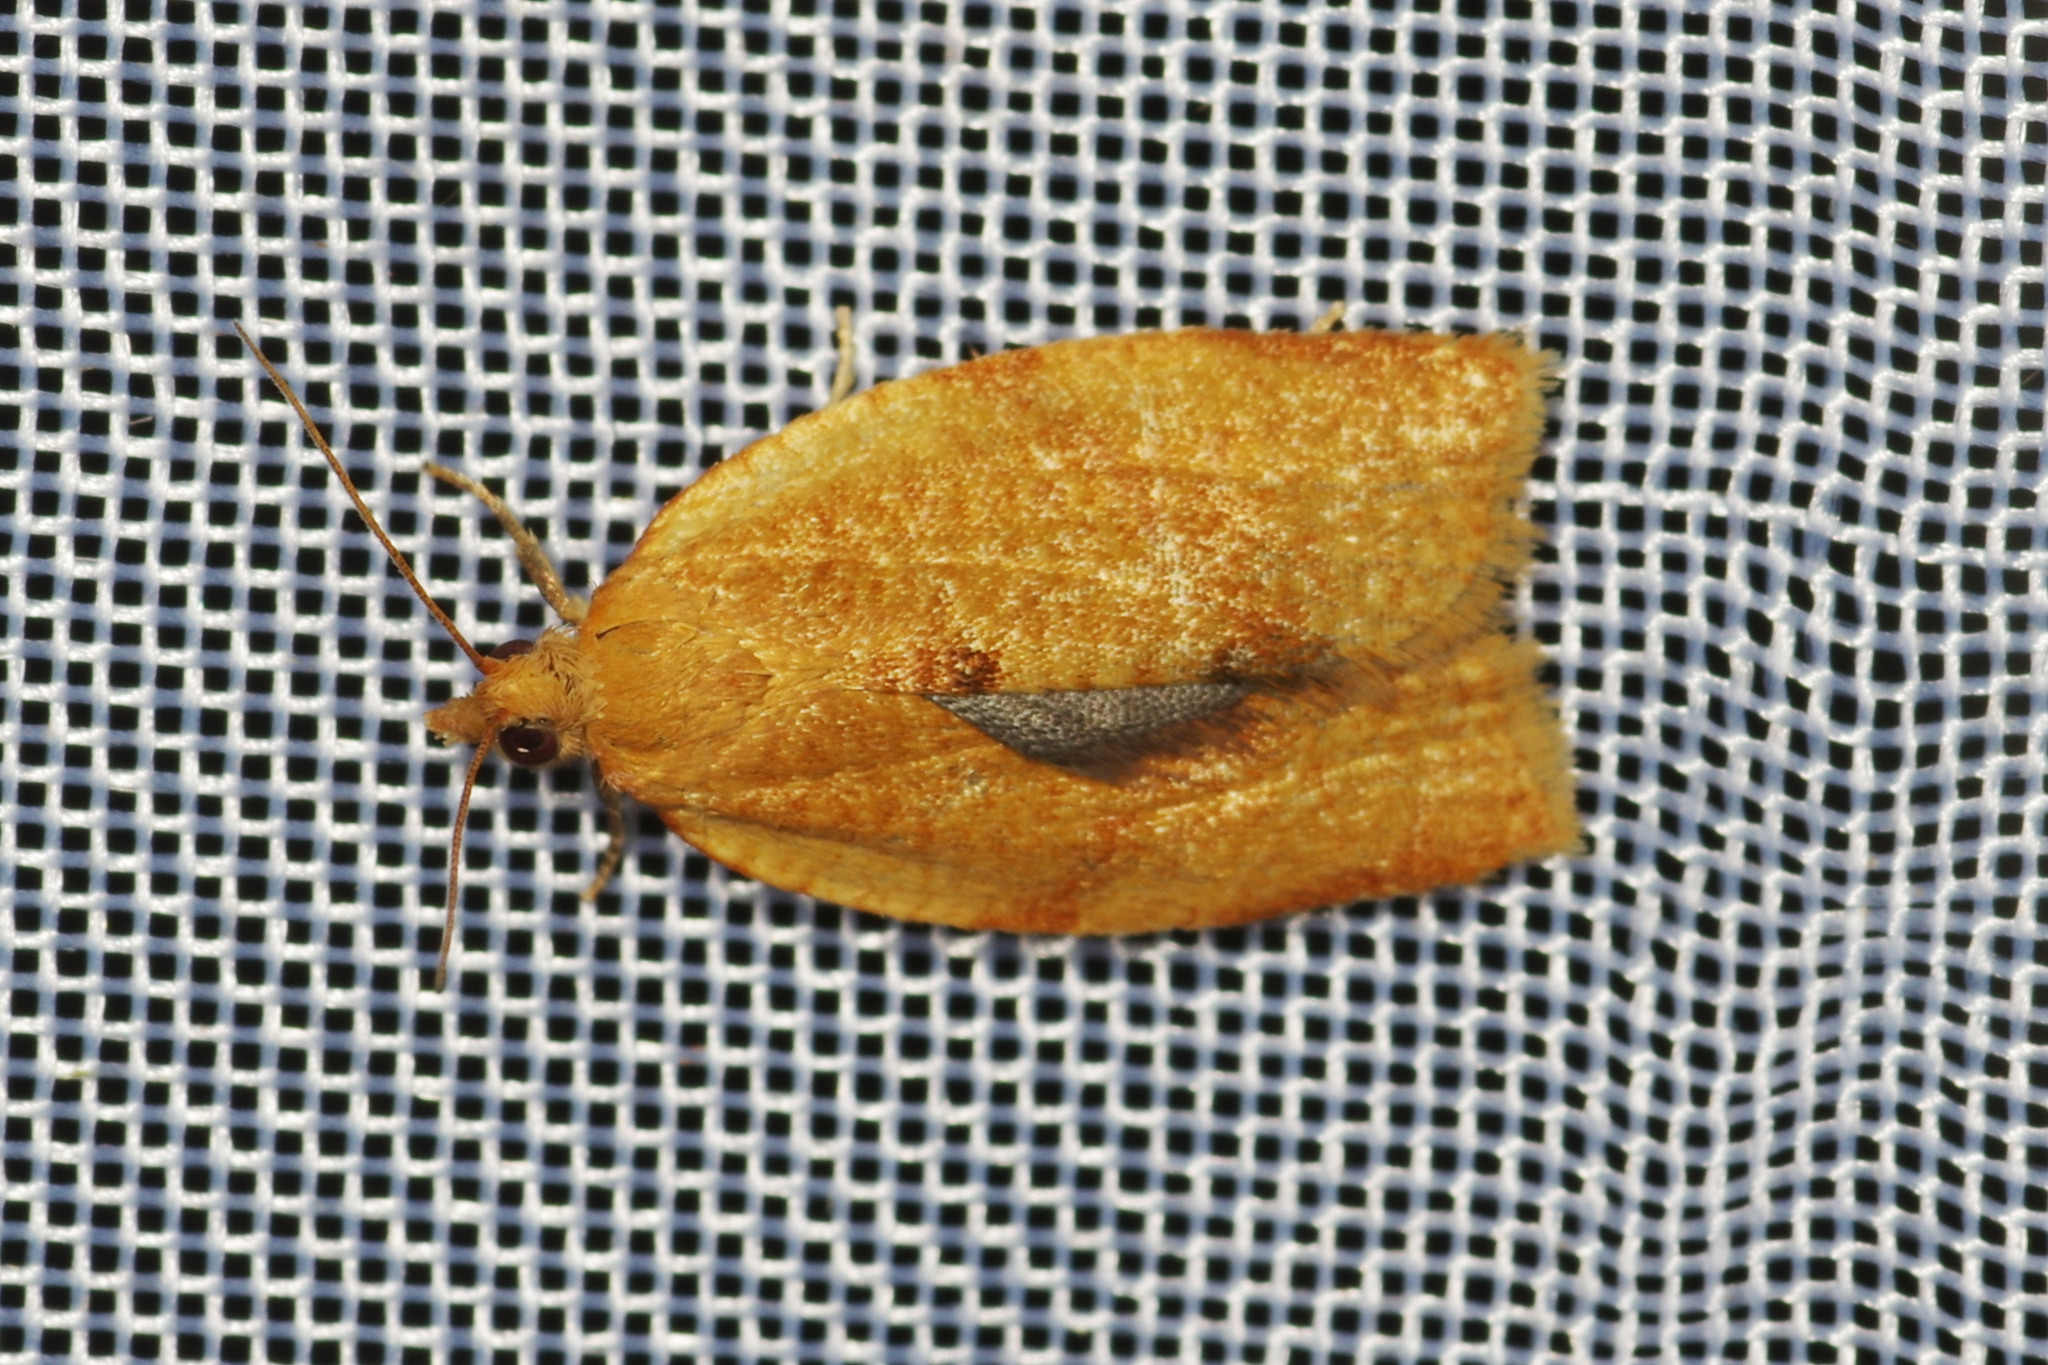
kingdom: Animalia
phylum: Arthropoda
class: Insecta
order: Lepidoptera
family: Tortricidae
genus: Clepsis
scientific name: Clepsis consimilana
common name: Privet tortrix
